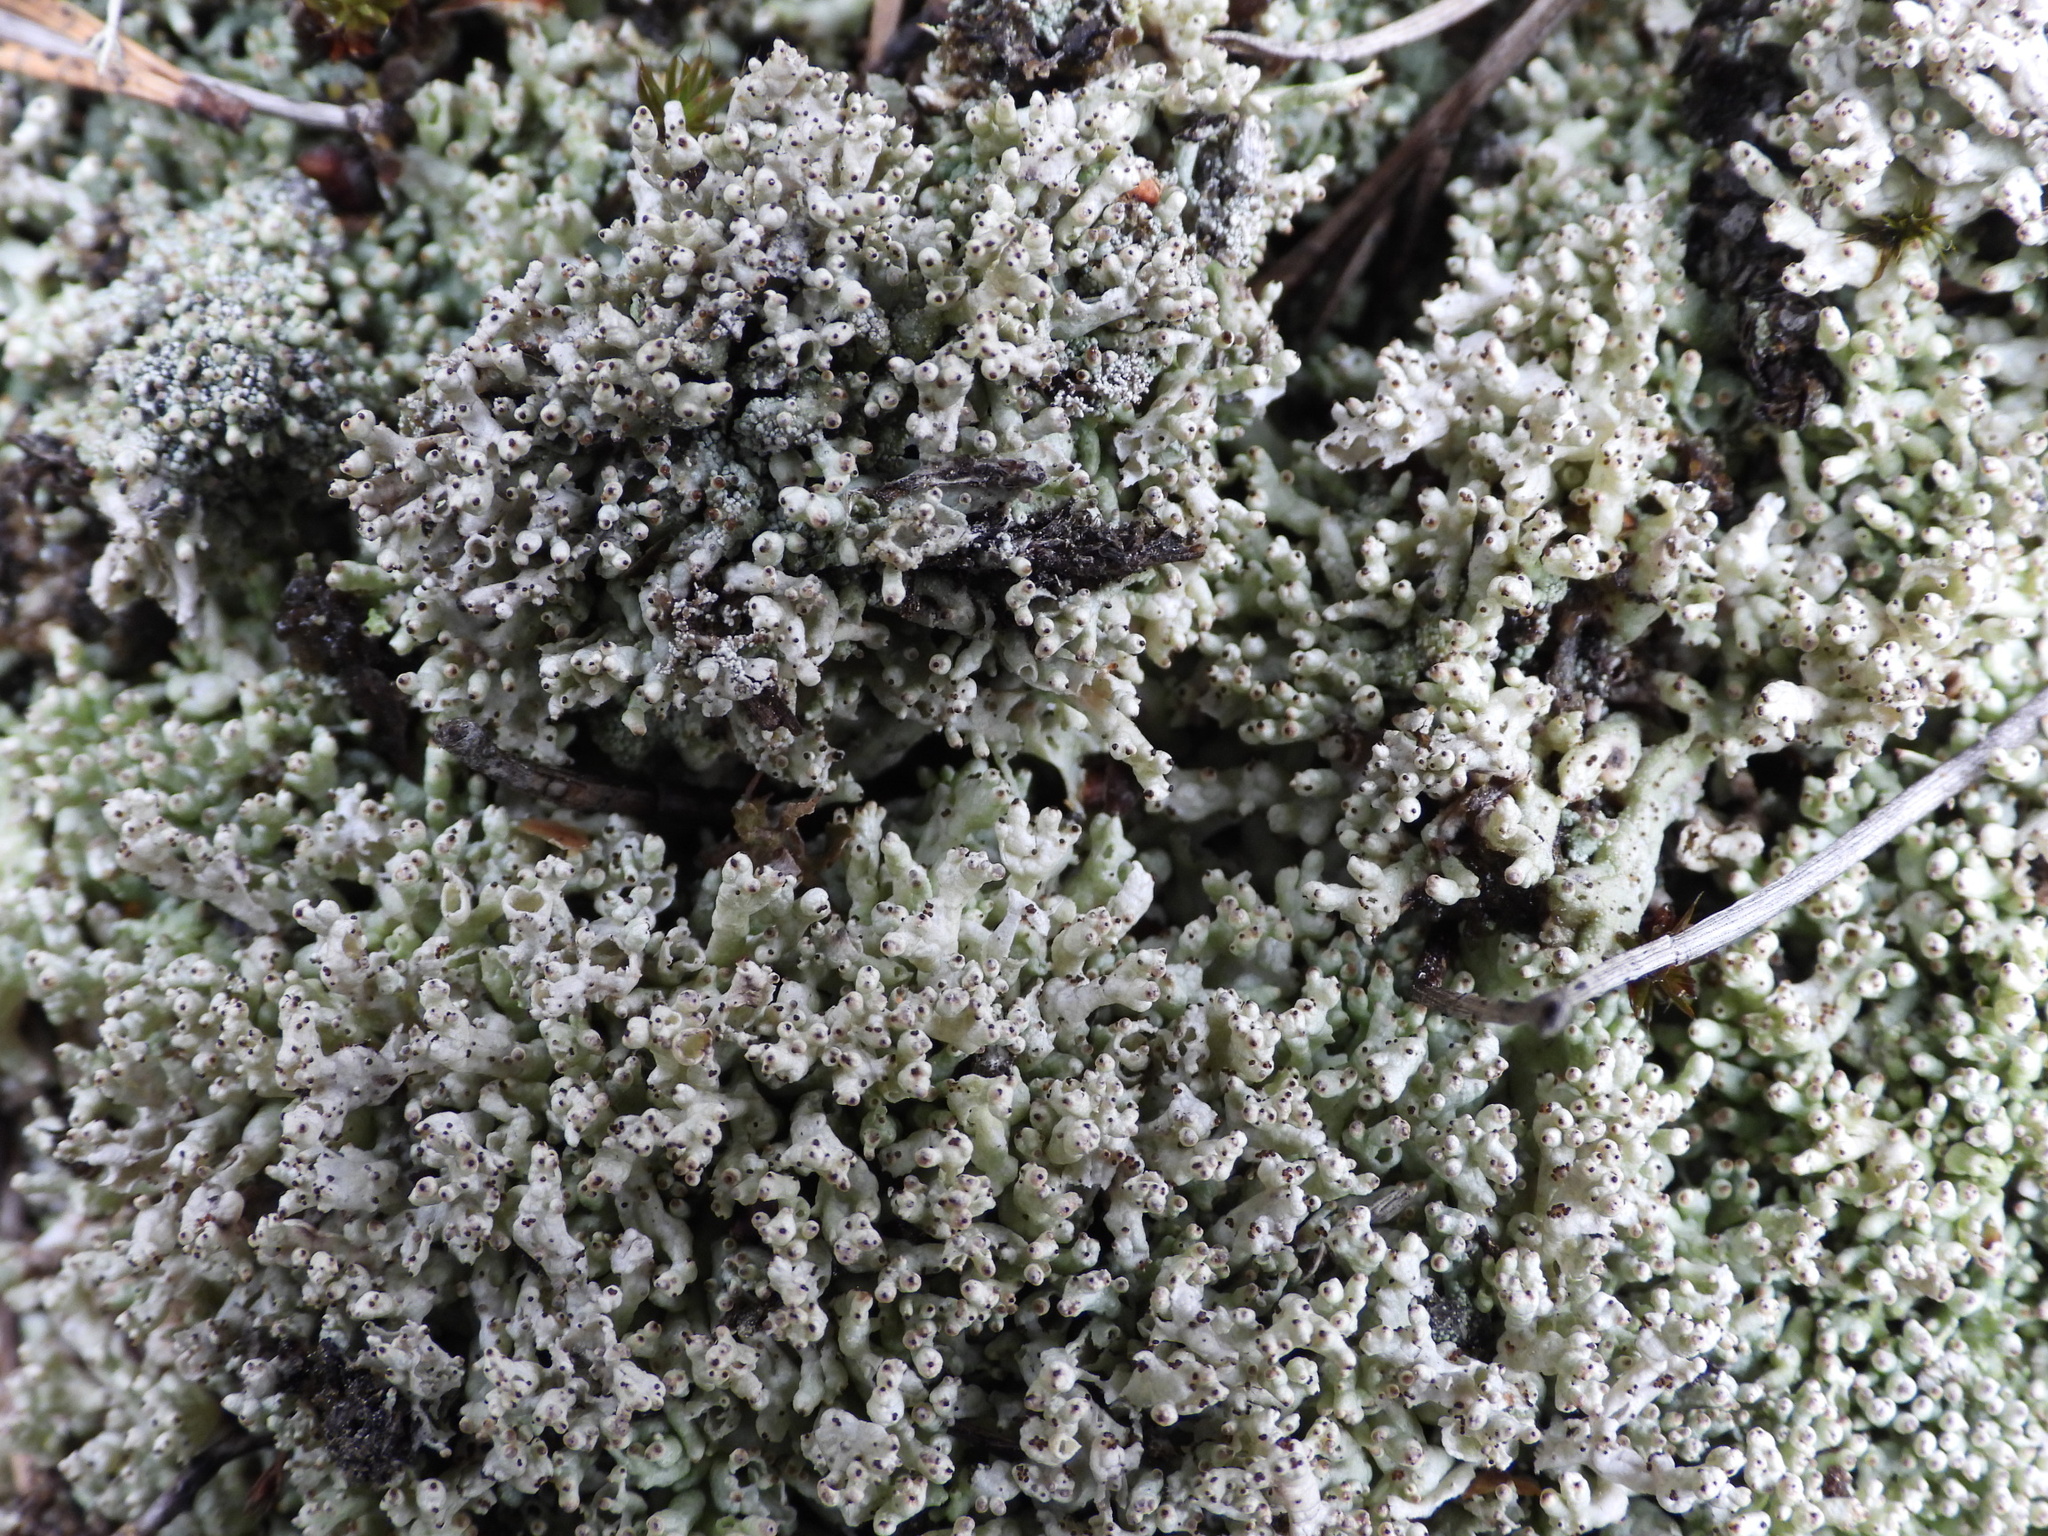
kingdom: Fungi
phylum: Ascomycota
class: Lecanoromycetes
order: Lecanorales
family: Cladoniaceae
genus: Pycnothelia
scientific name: Pycnothelia papillaria
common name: Nipple lichen
